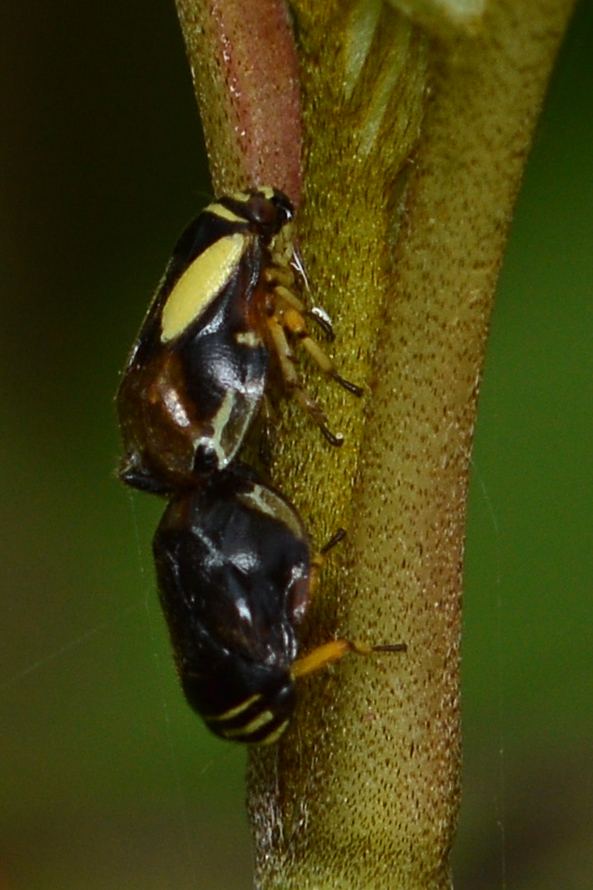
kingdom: Animalia
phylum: Arthropoda
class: Insecta
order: Hemiptera
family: Clastopteridae
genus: Clastoptera
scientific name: Clastoptera proteus
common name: Dogwood spittlebug
